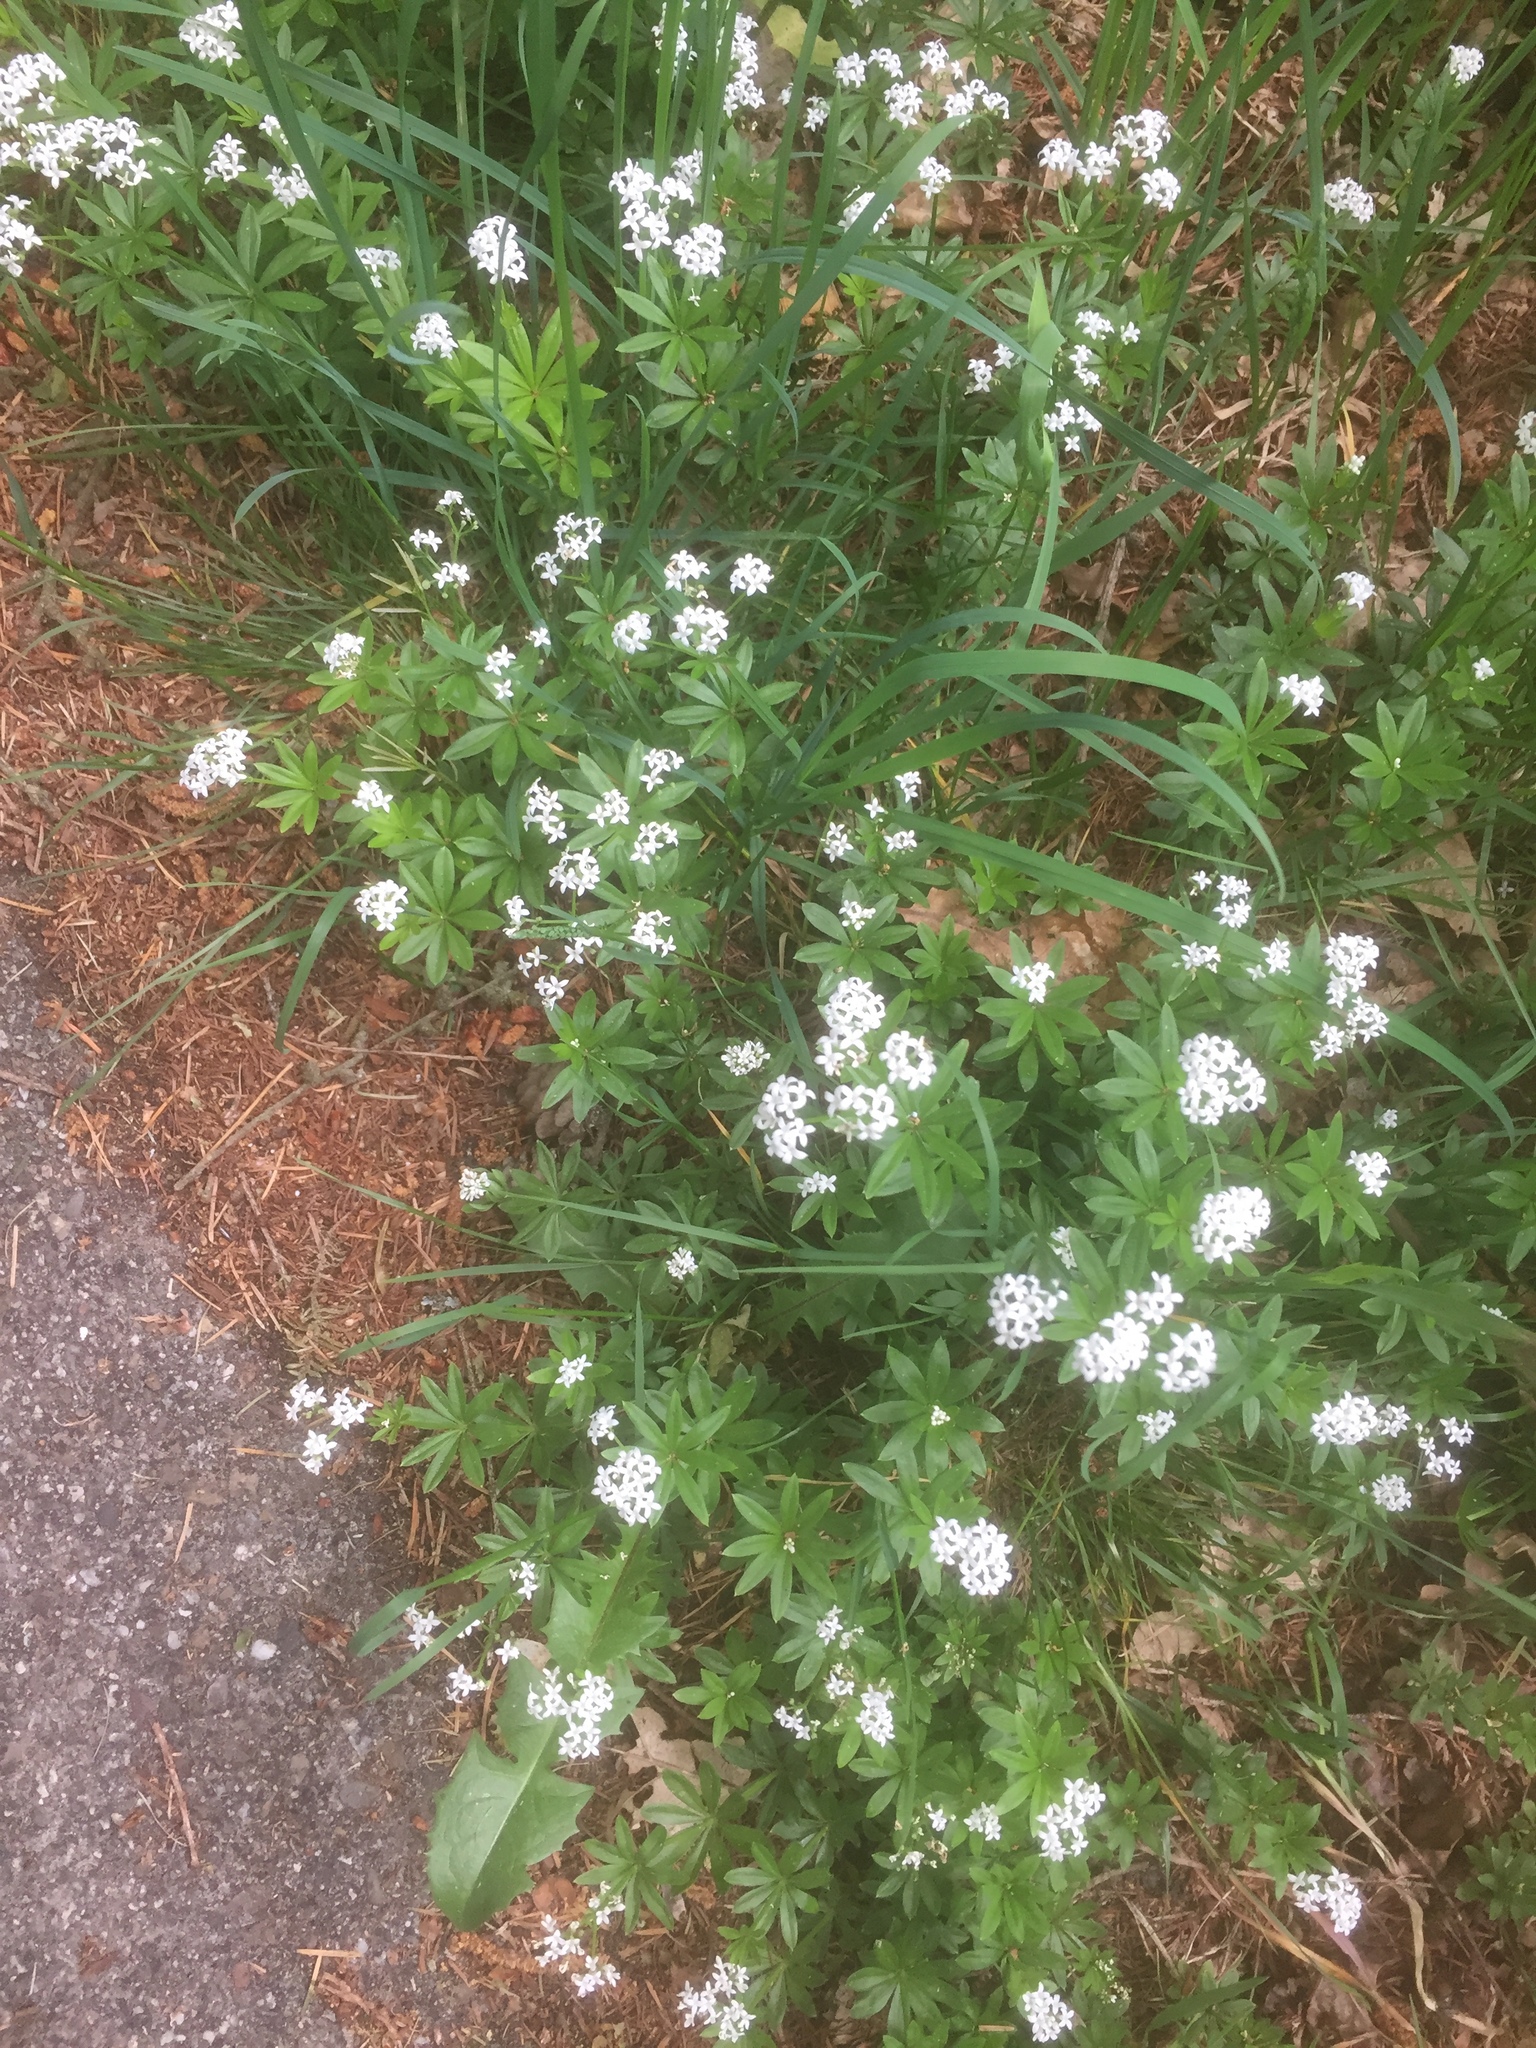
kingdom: Plantae
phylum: Tracheophyta
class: Magnoliopsida
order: Gentianales
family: Rubiaceae
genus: Galium
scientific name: Galium odoratum
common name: Sweet woodruff
